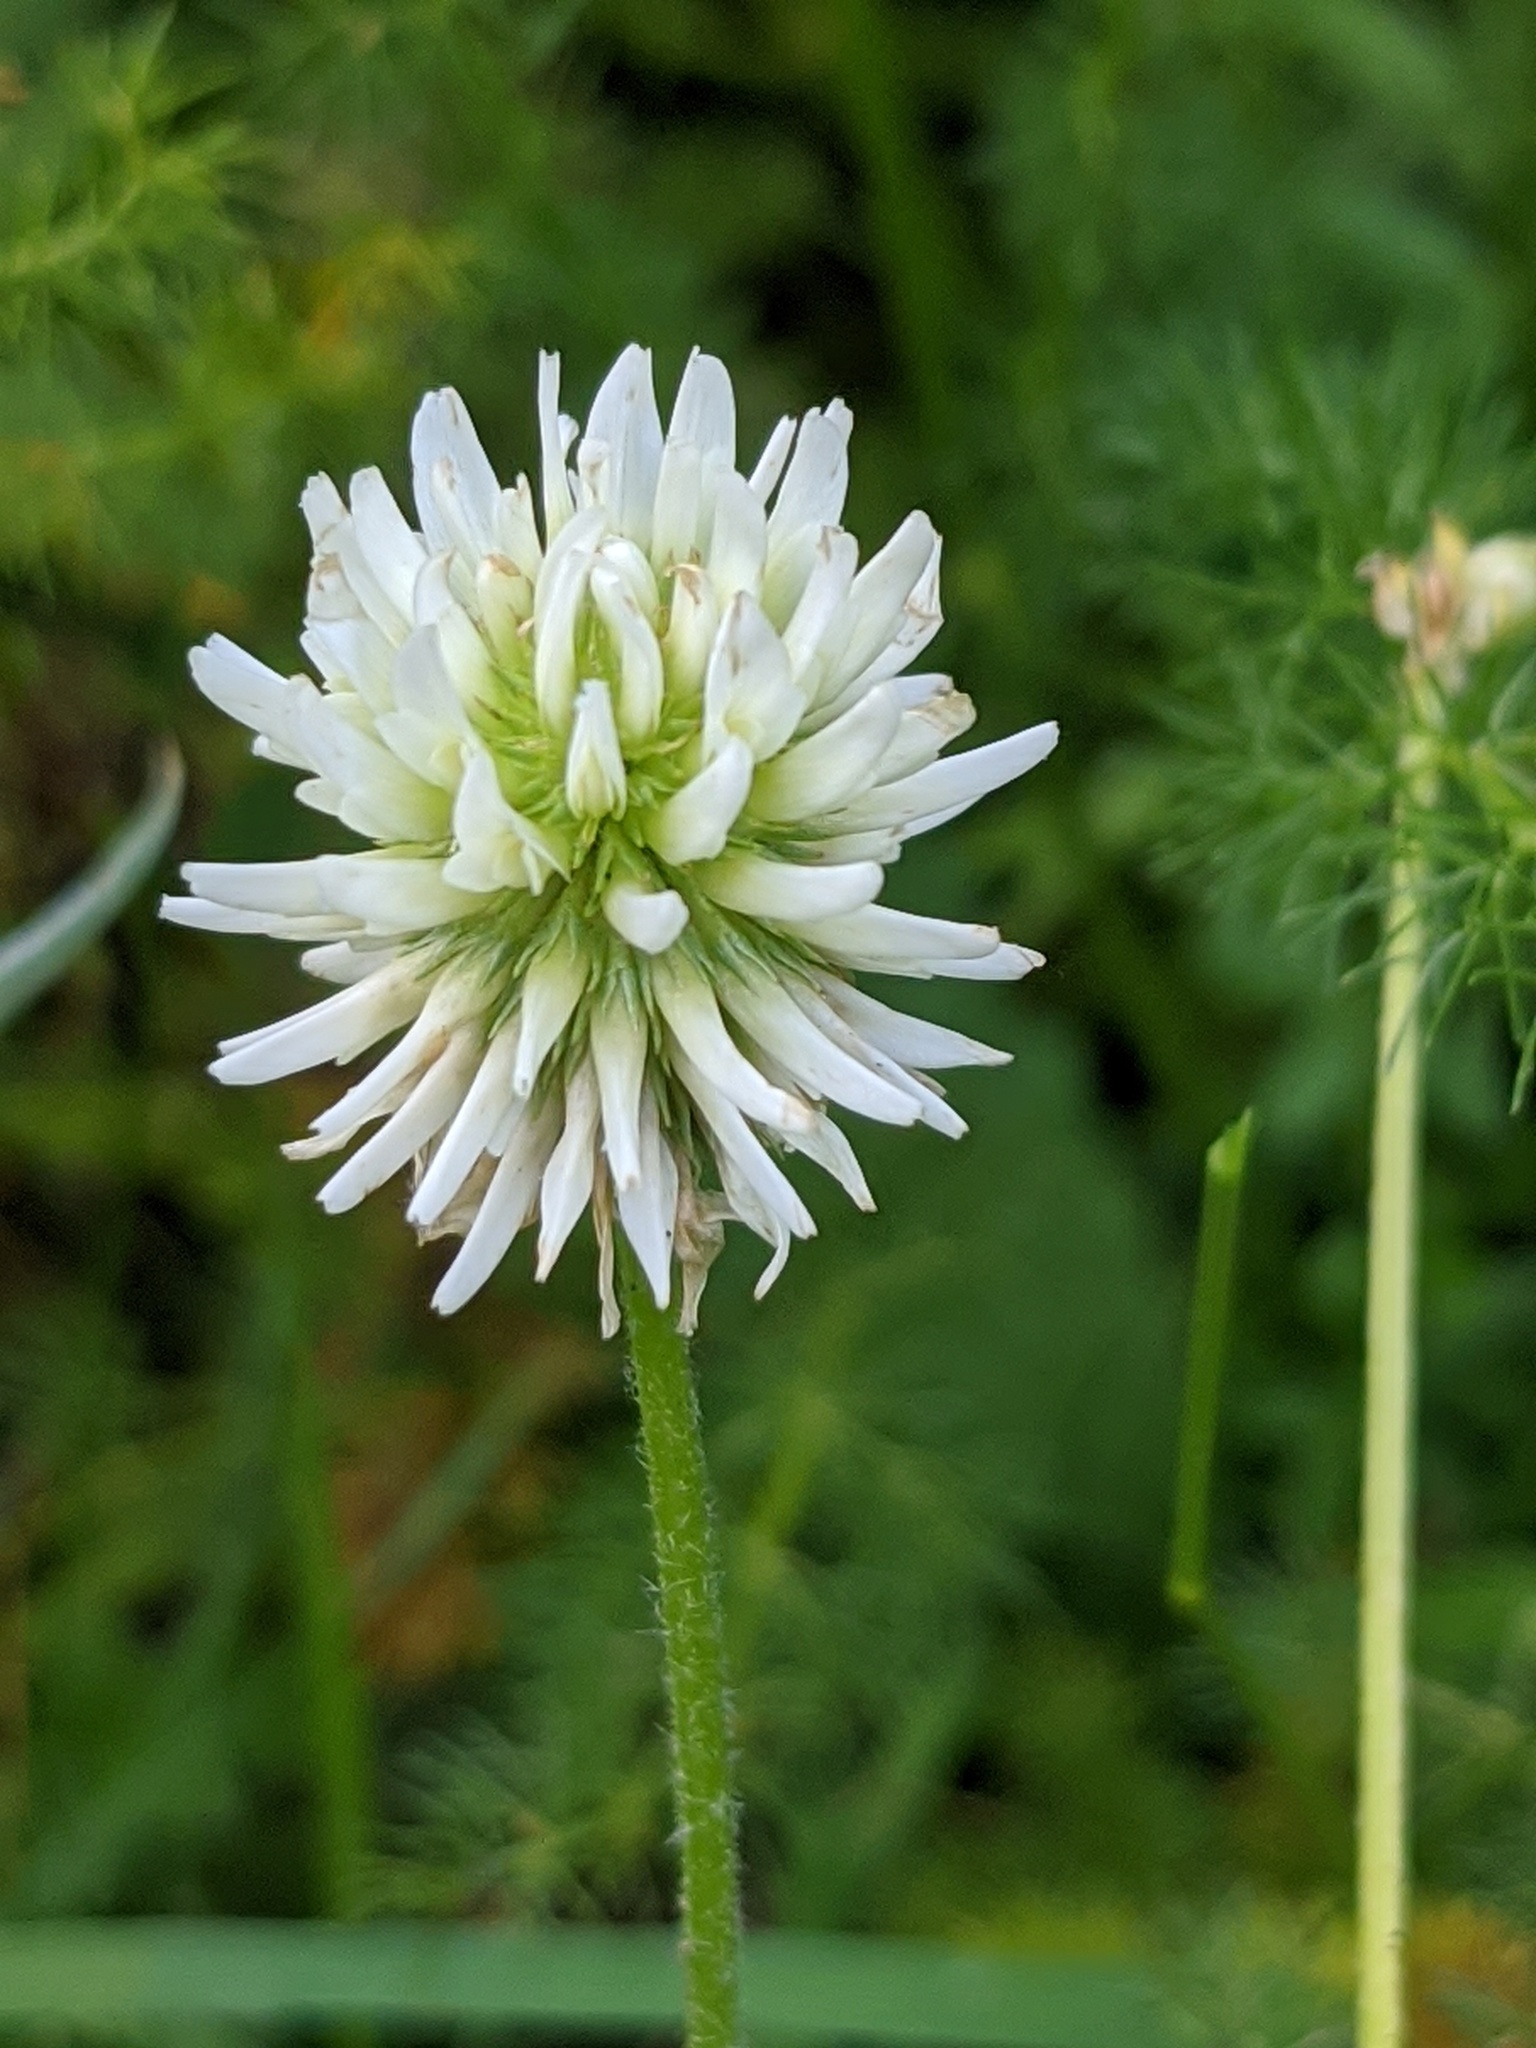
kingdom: Plantae
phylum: Tracheophyta
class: Magnoliopsida
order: Fabales
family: Fabaceae
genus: Trifolium
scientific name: Trifolium montanum
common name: Mountain clover
